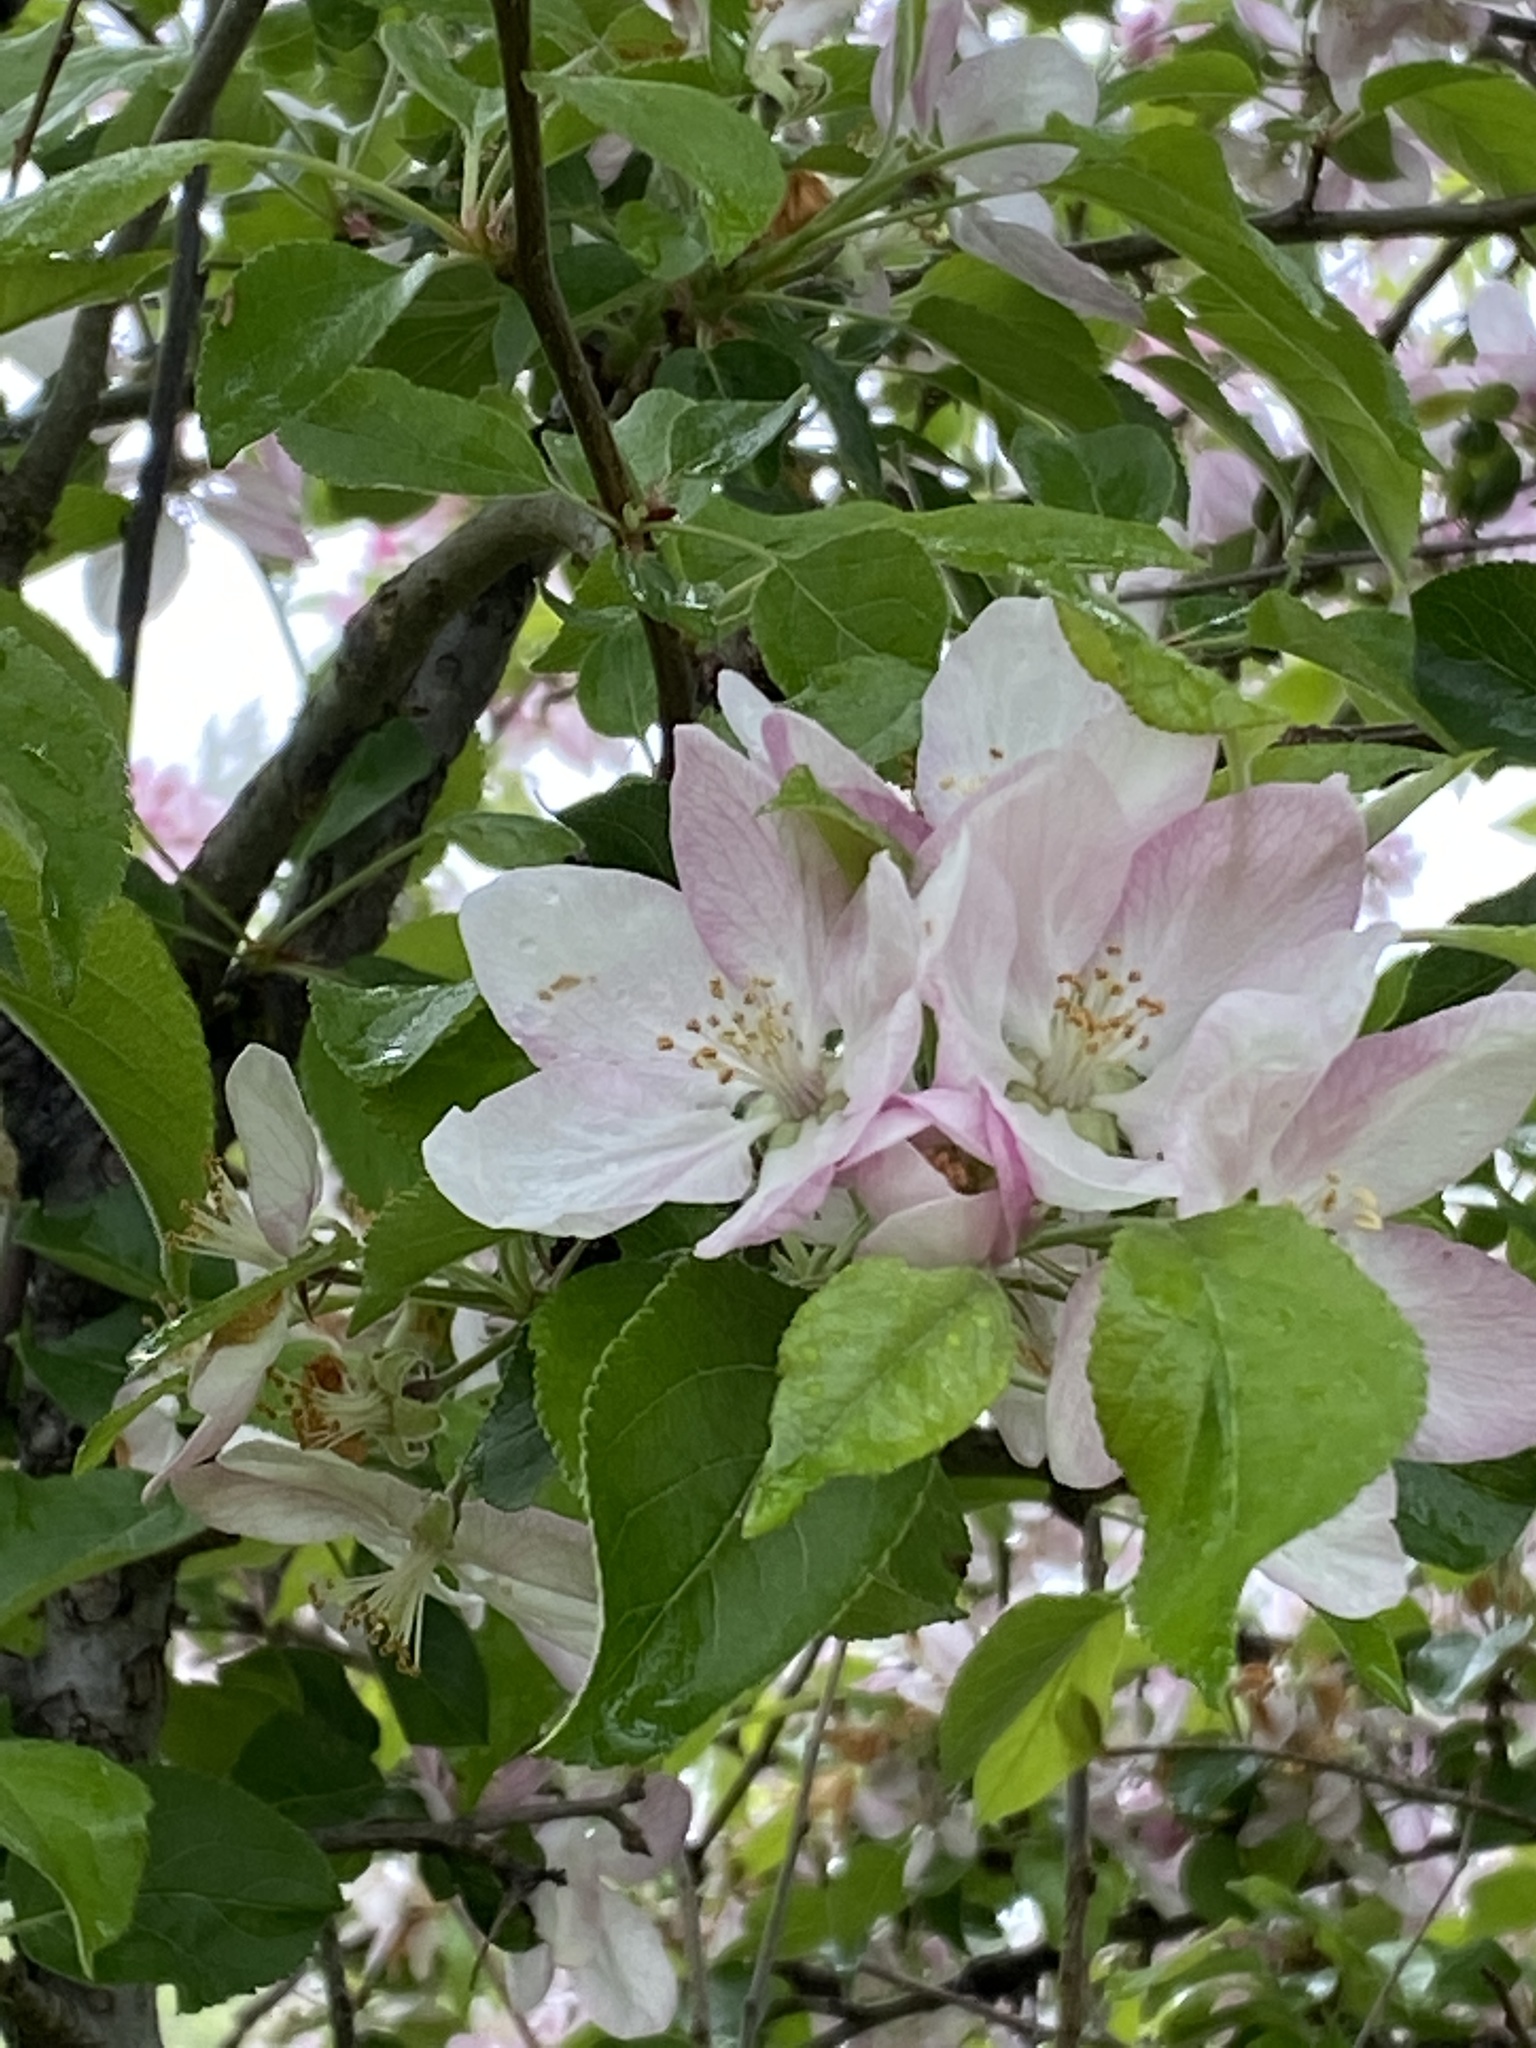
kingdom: Plantae
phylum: Tracheophyta
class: Magnoliopsida
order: Rosales
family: Rosaceae
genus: Malus
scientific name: Malus domestica
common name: Apple
